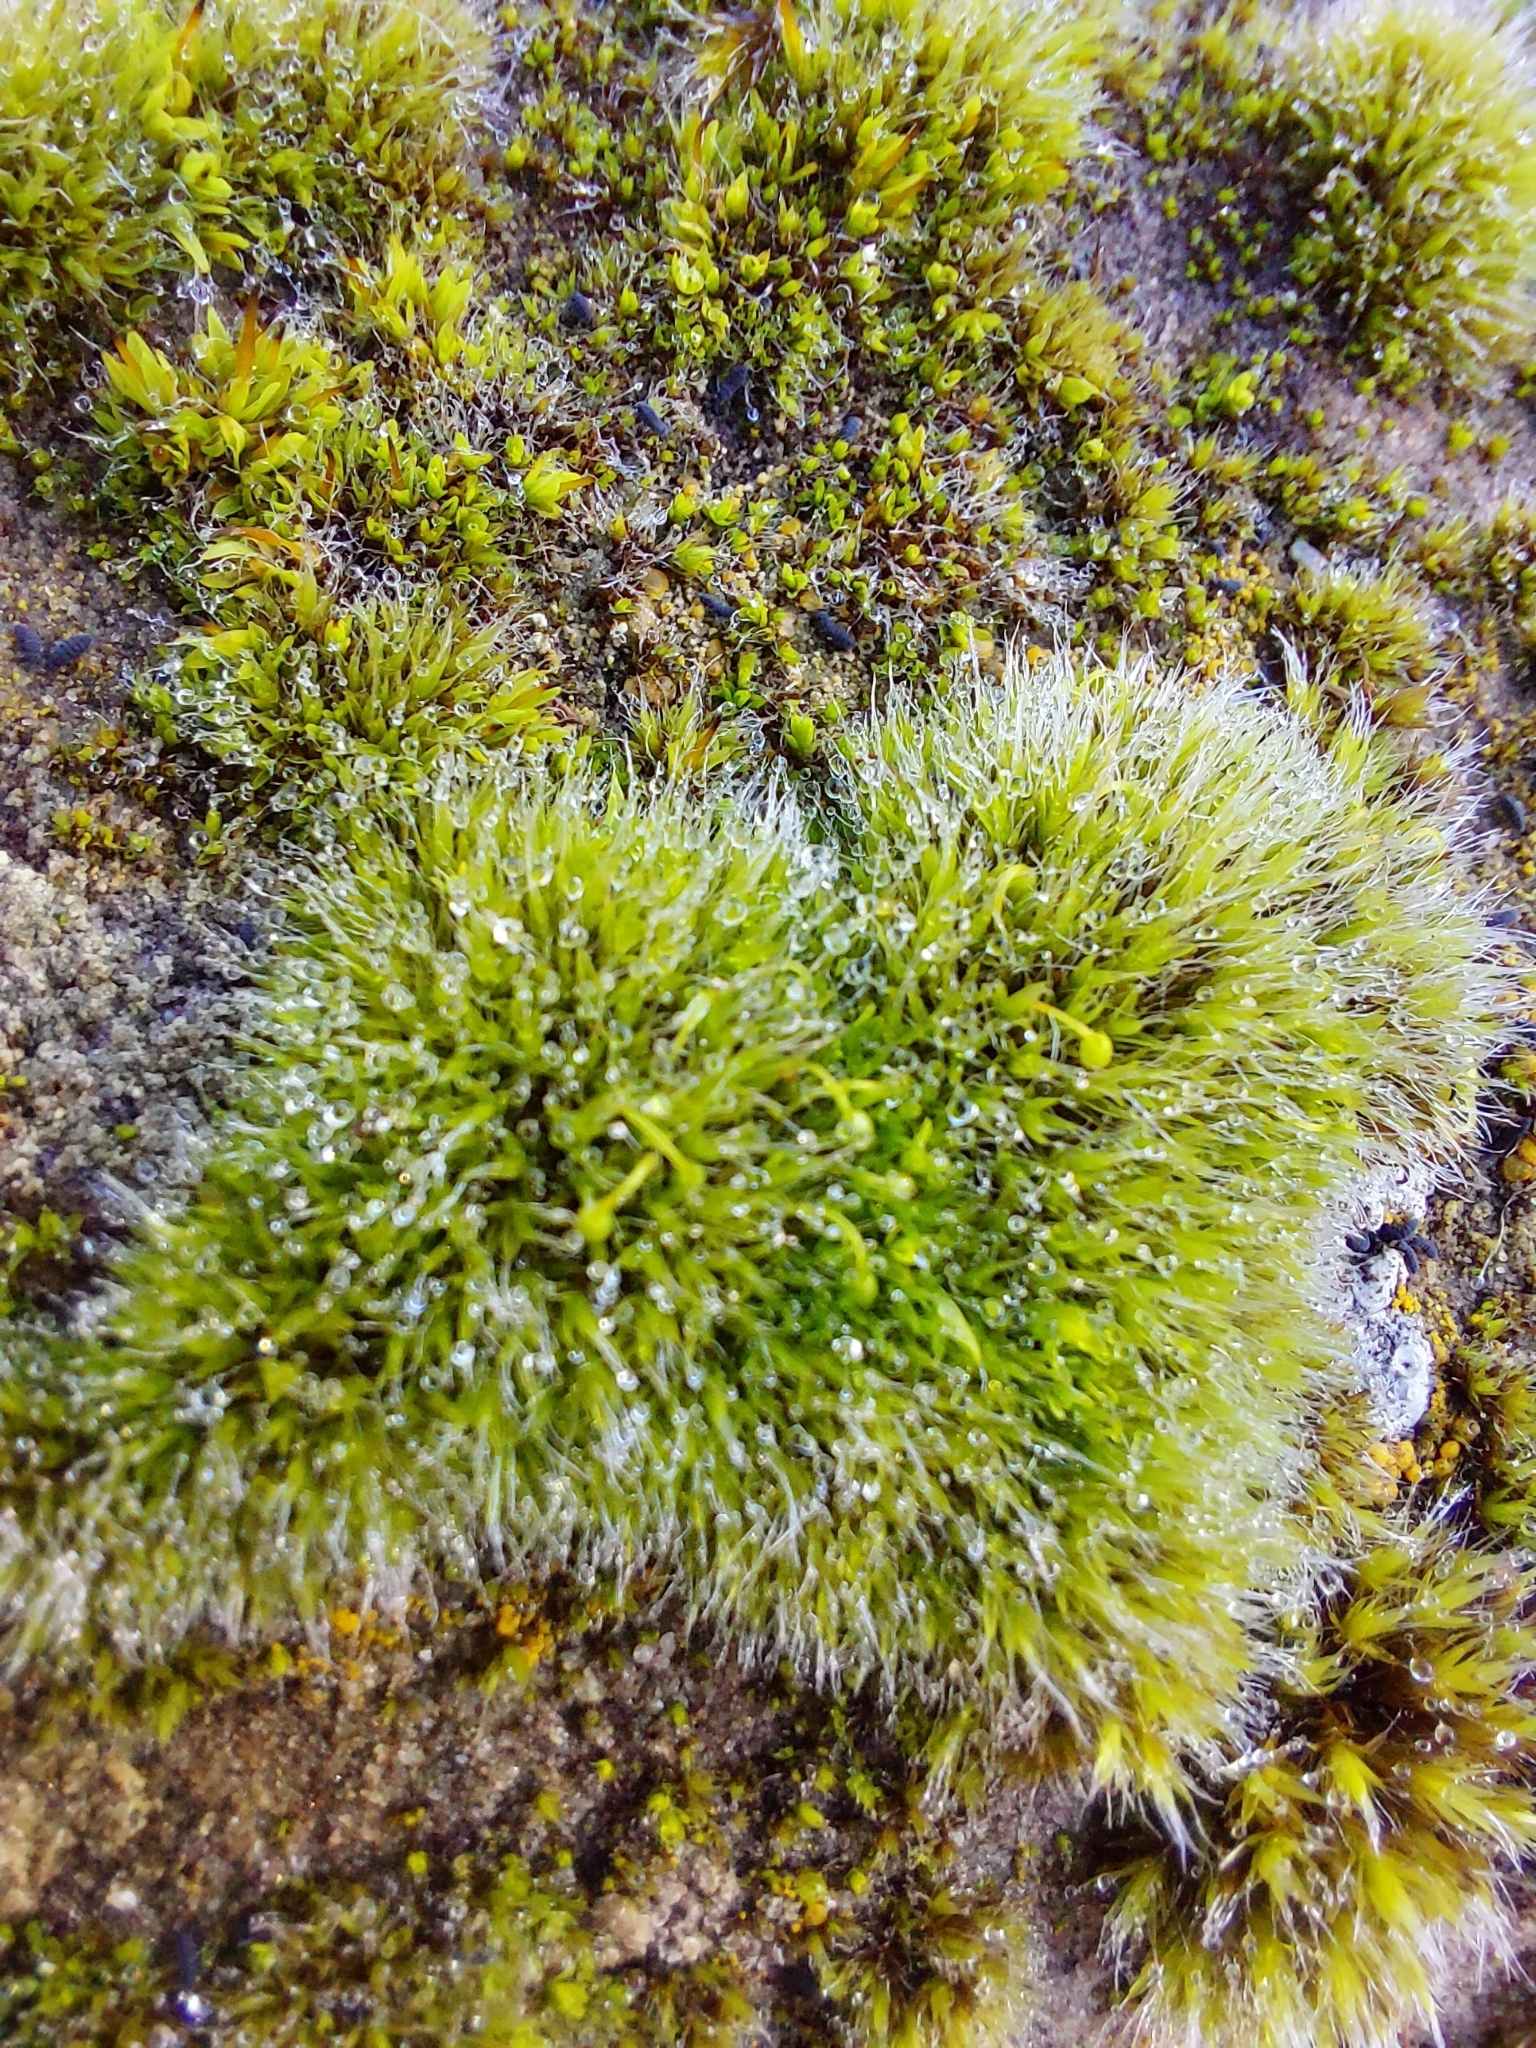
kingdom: Plantae
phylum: Bryophyta
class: Bryopsida
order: Grimmiales
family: Grimmiaceae
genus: Grimmia
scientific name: Grimmia pulvinata
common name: Grey-cushioned grimmia
